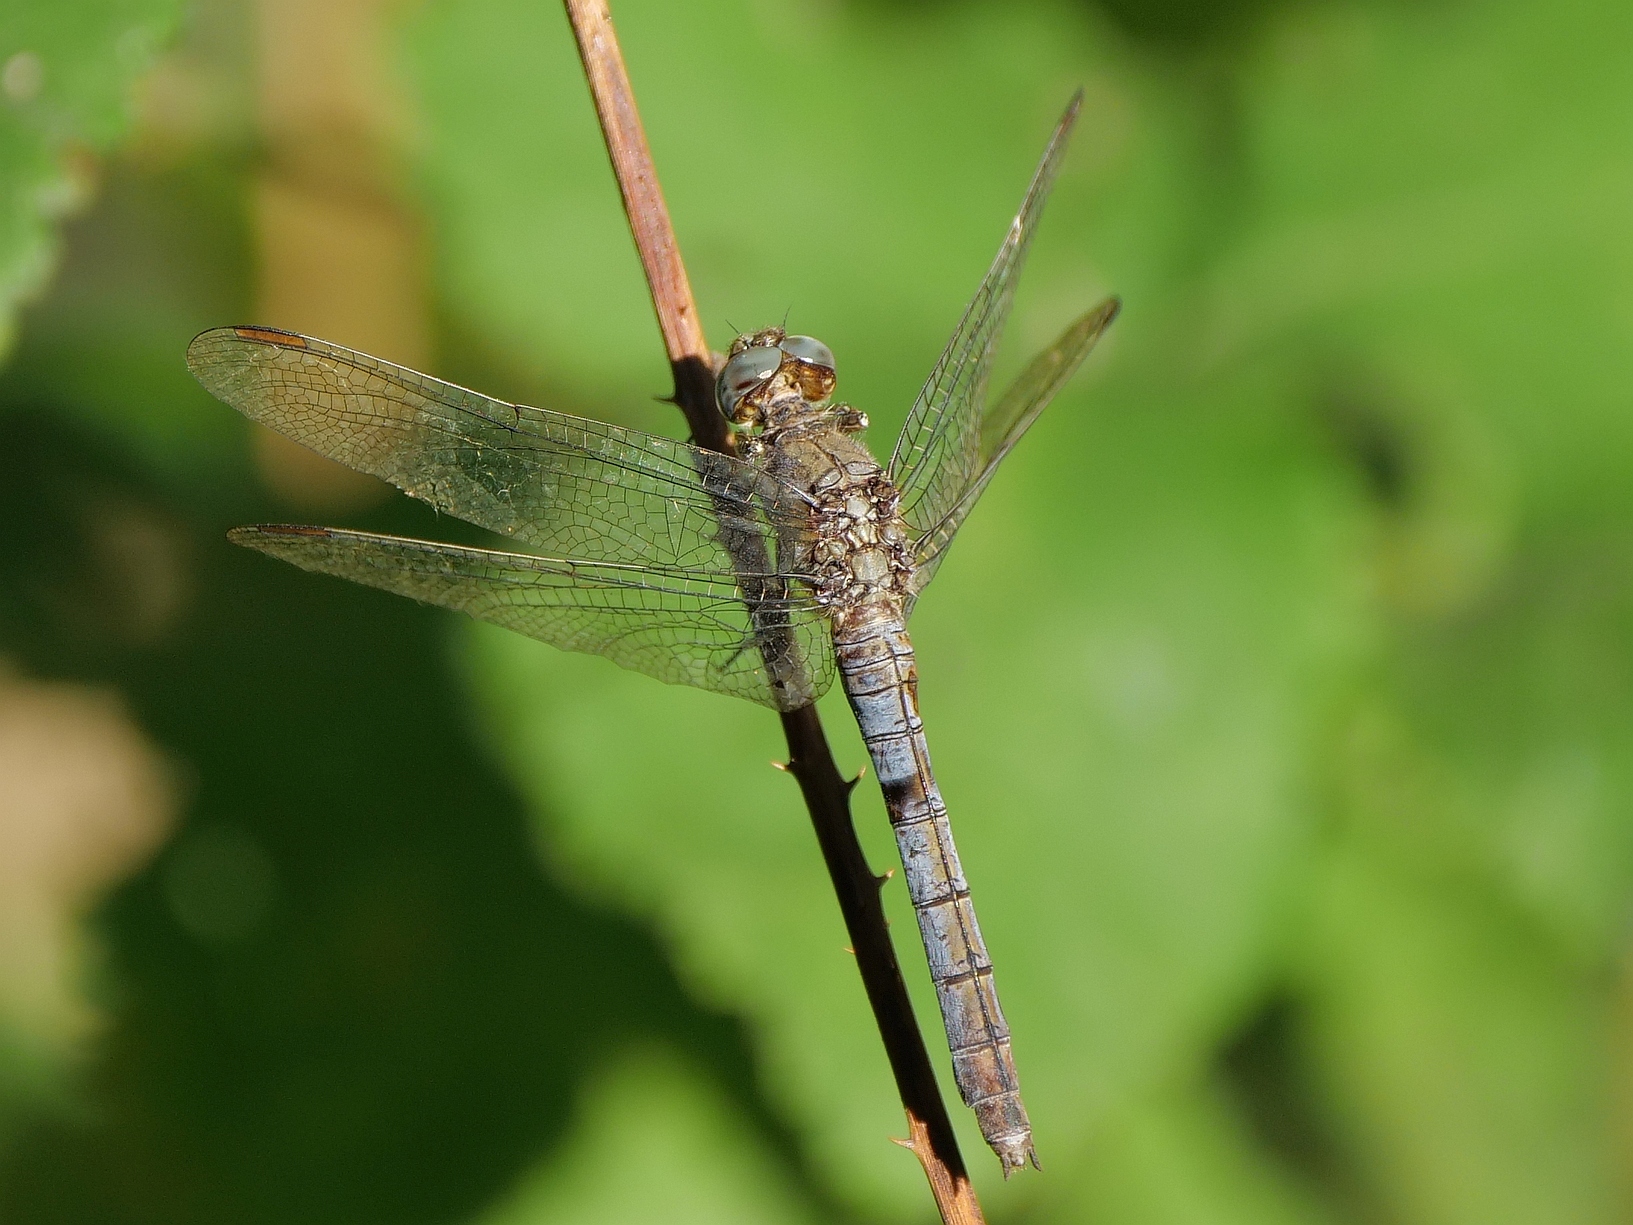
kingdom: Animalia
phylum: Arthropoda
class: Insecta
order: Odonata
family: Libellulidae
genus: Orthetrum
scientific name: Orthetrum coerulescens
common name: Keeled skimmer
